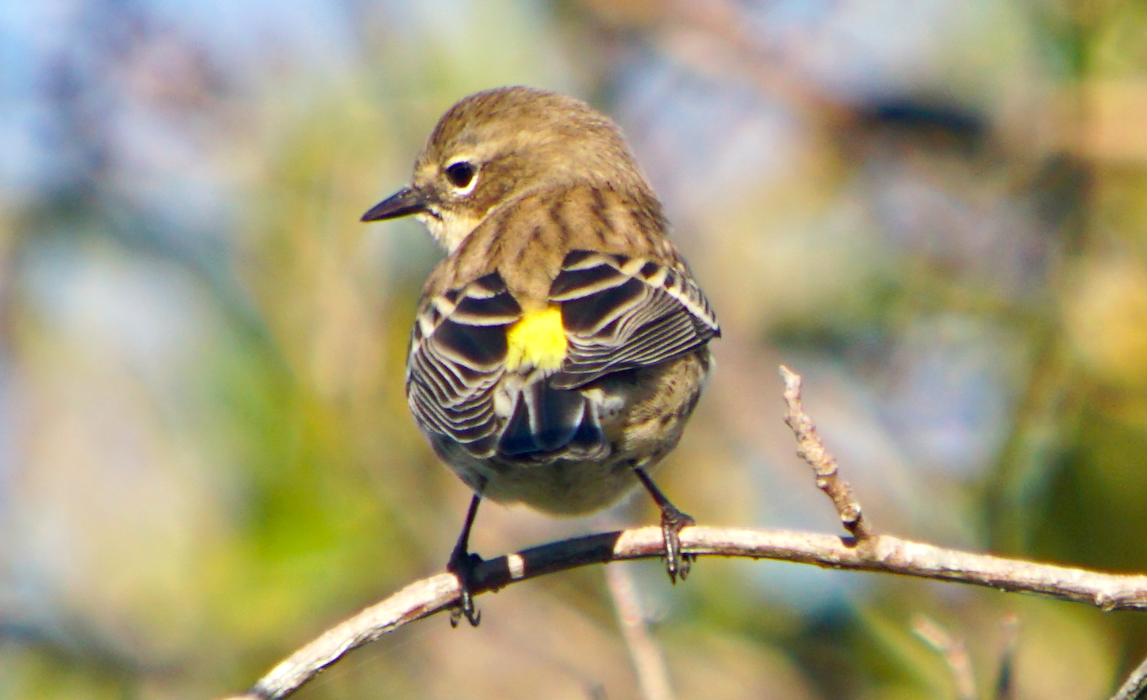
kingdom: Animalia
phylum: Chordata
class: Aves
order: Passeriformes
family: Parulidae
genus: Setophaga
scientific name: Setophaga coronata
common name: Myrtle warbler
